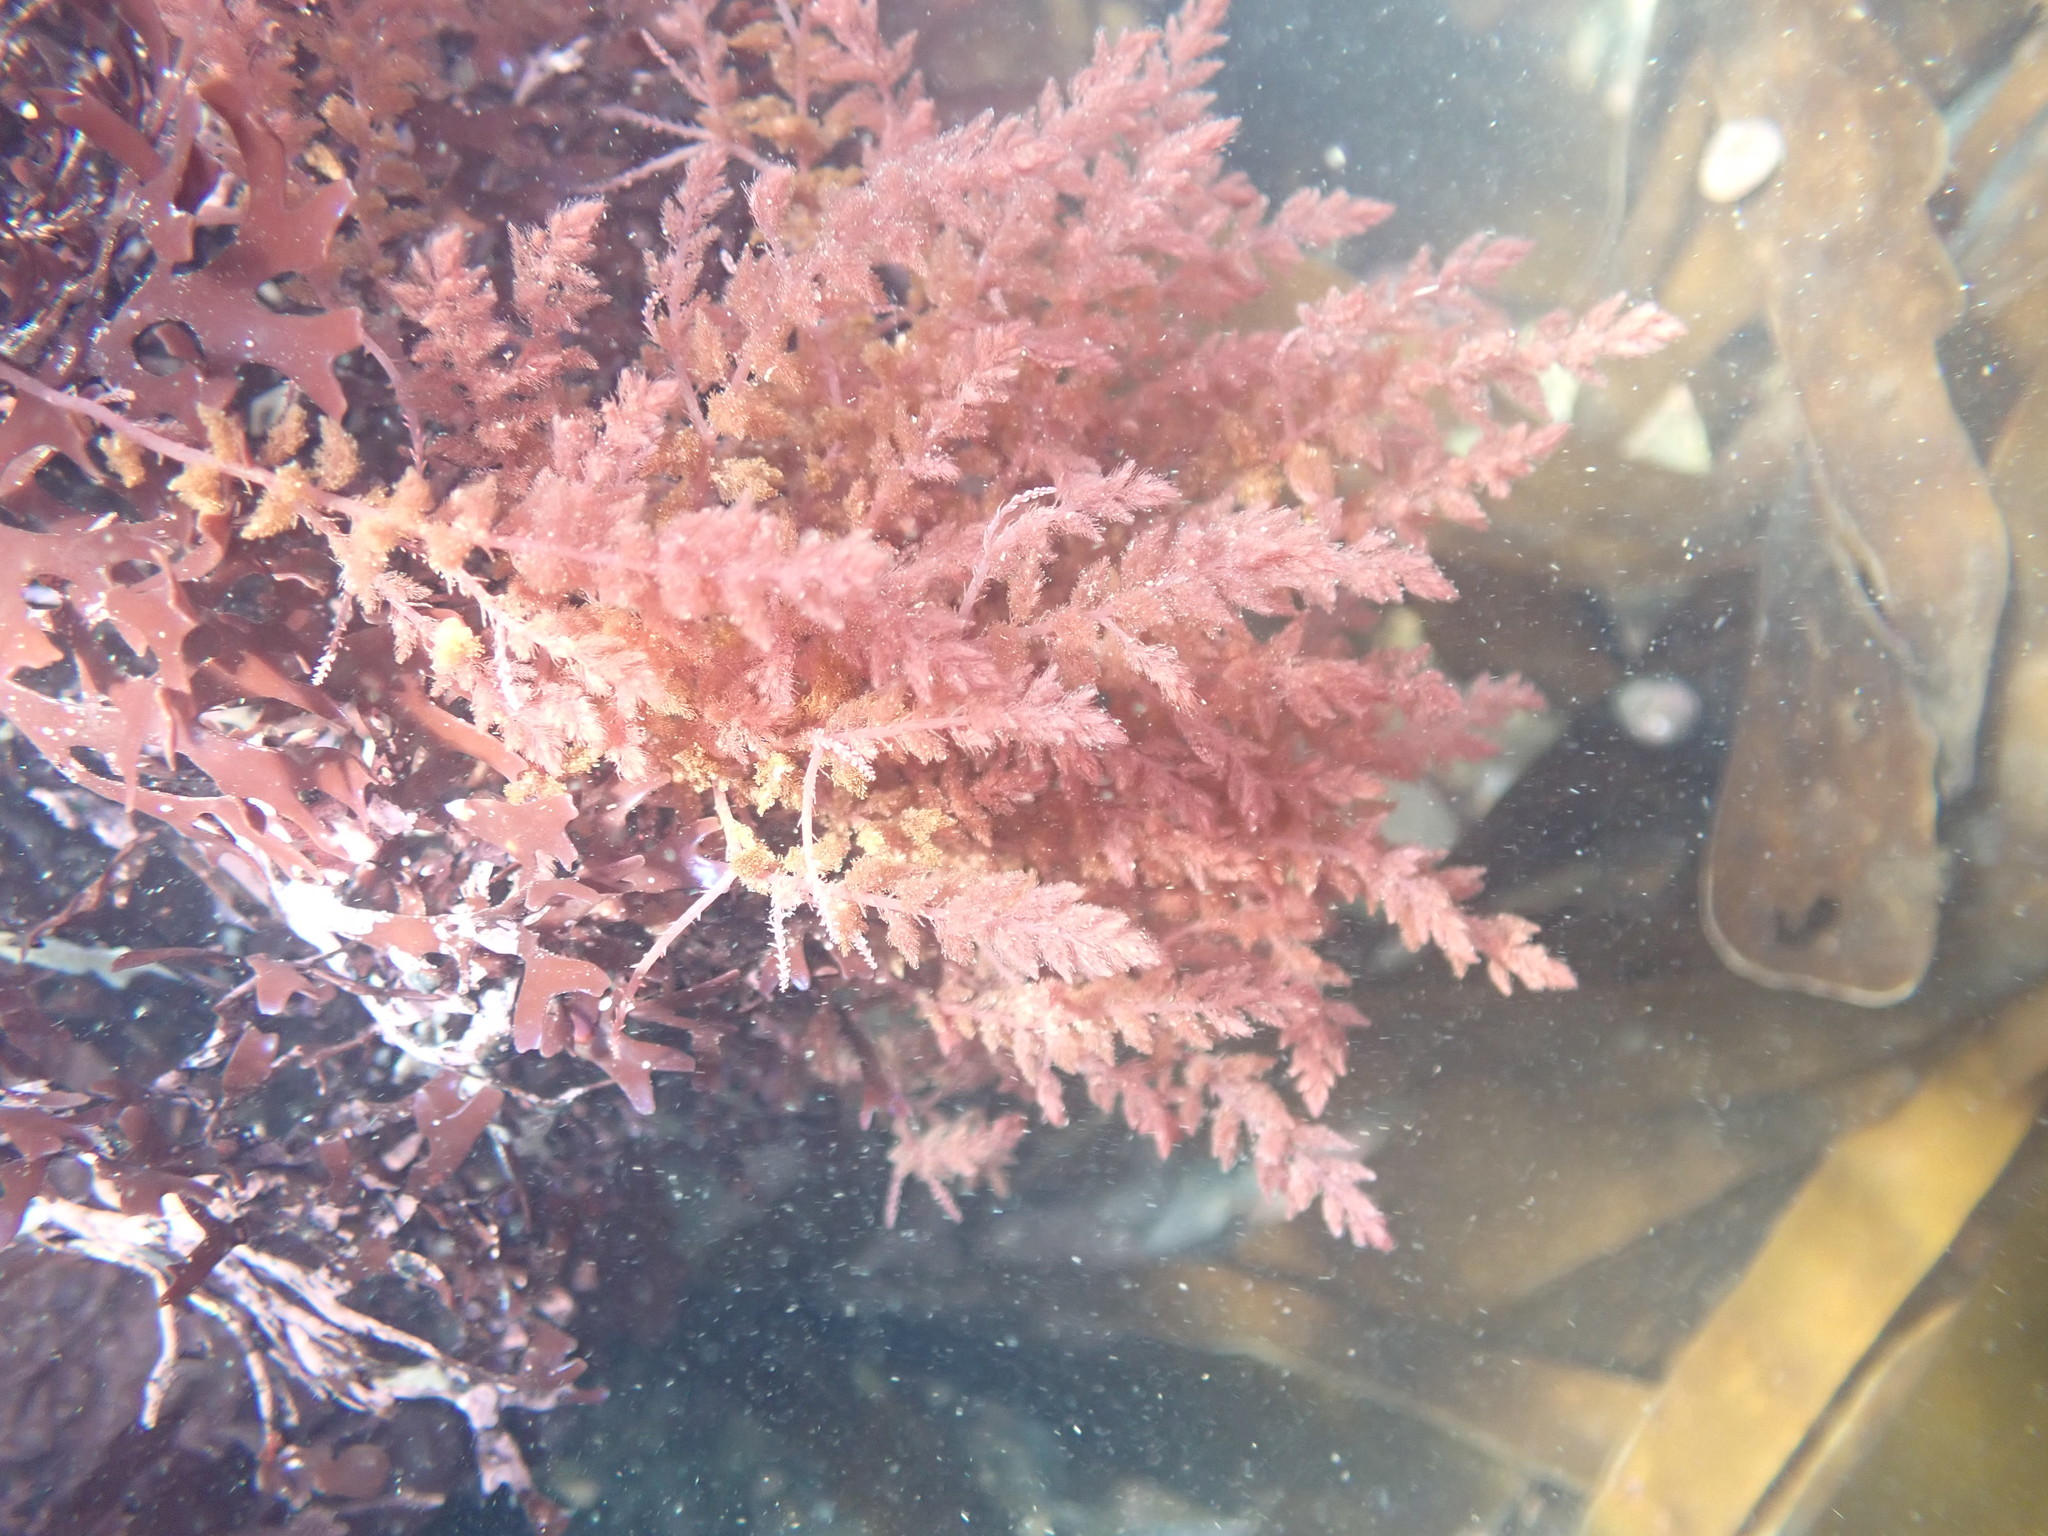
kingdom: Plantae
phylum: Rhodophyta
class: Florideophyceae
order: Bonnemaisoniales
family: Bonnemaisoniaceae
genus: Asparagopsis
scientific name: Asparagopsis armata
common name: Harpoon weed
